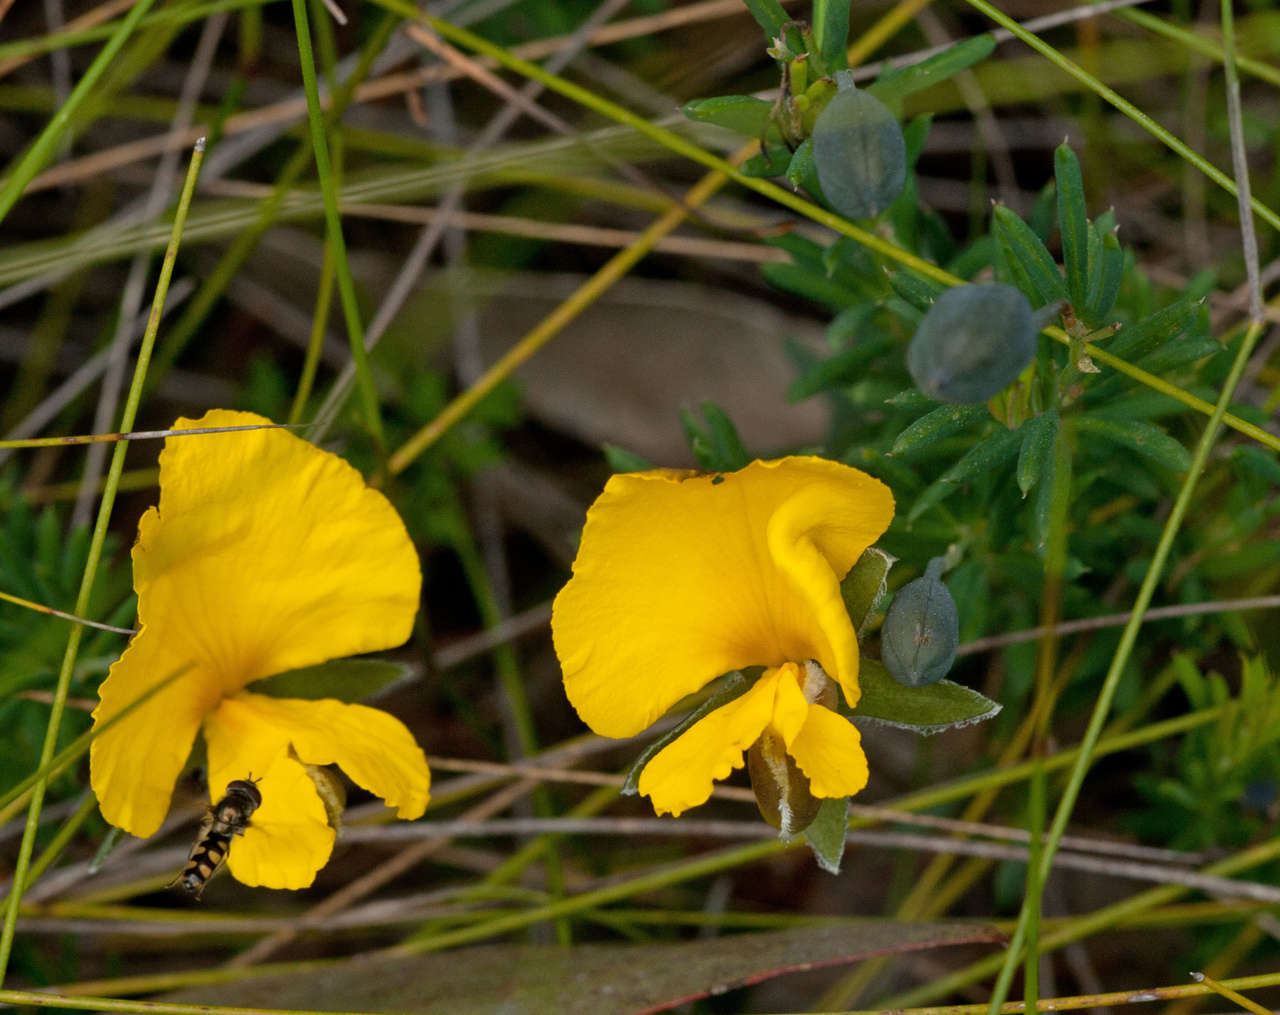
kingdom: Plantae
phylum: Tracheophyta
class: Magnoliopsida
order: Fabales
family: Fabaceae
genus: Gompholobium
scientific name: Gompholobium huegelii
